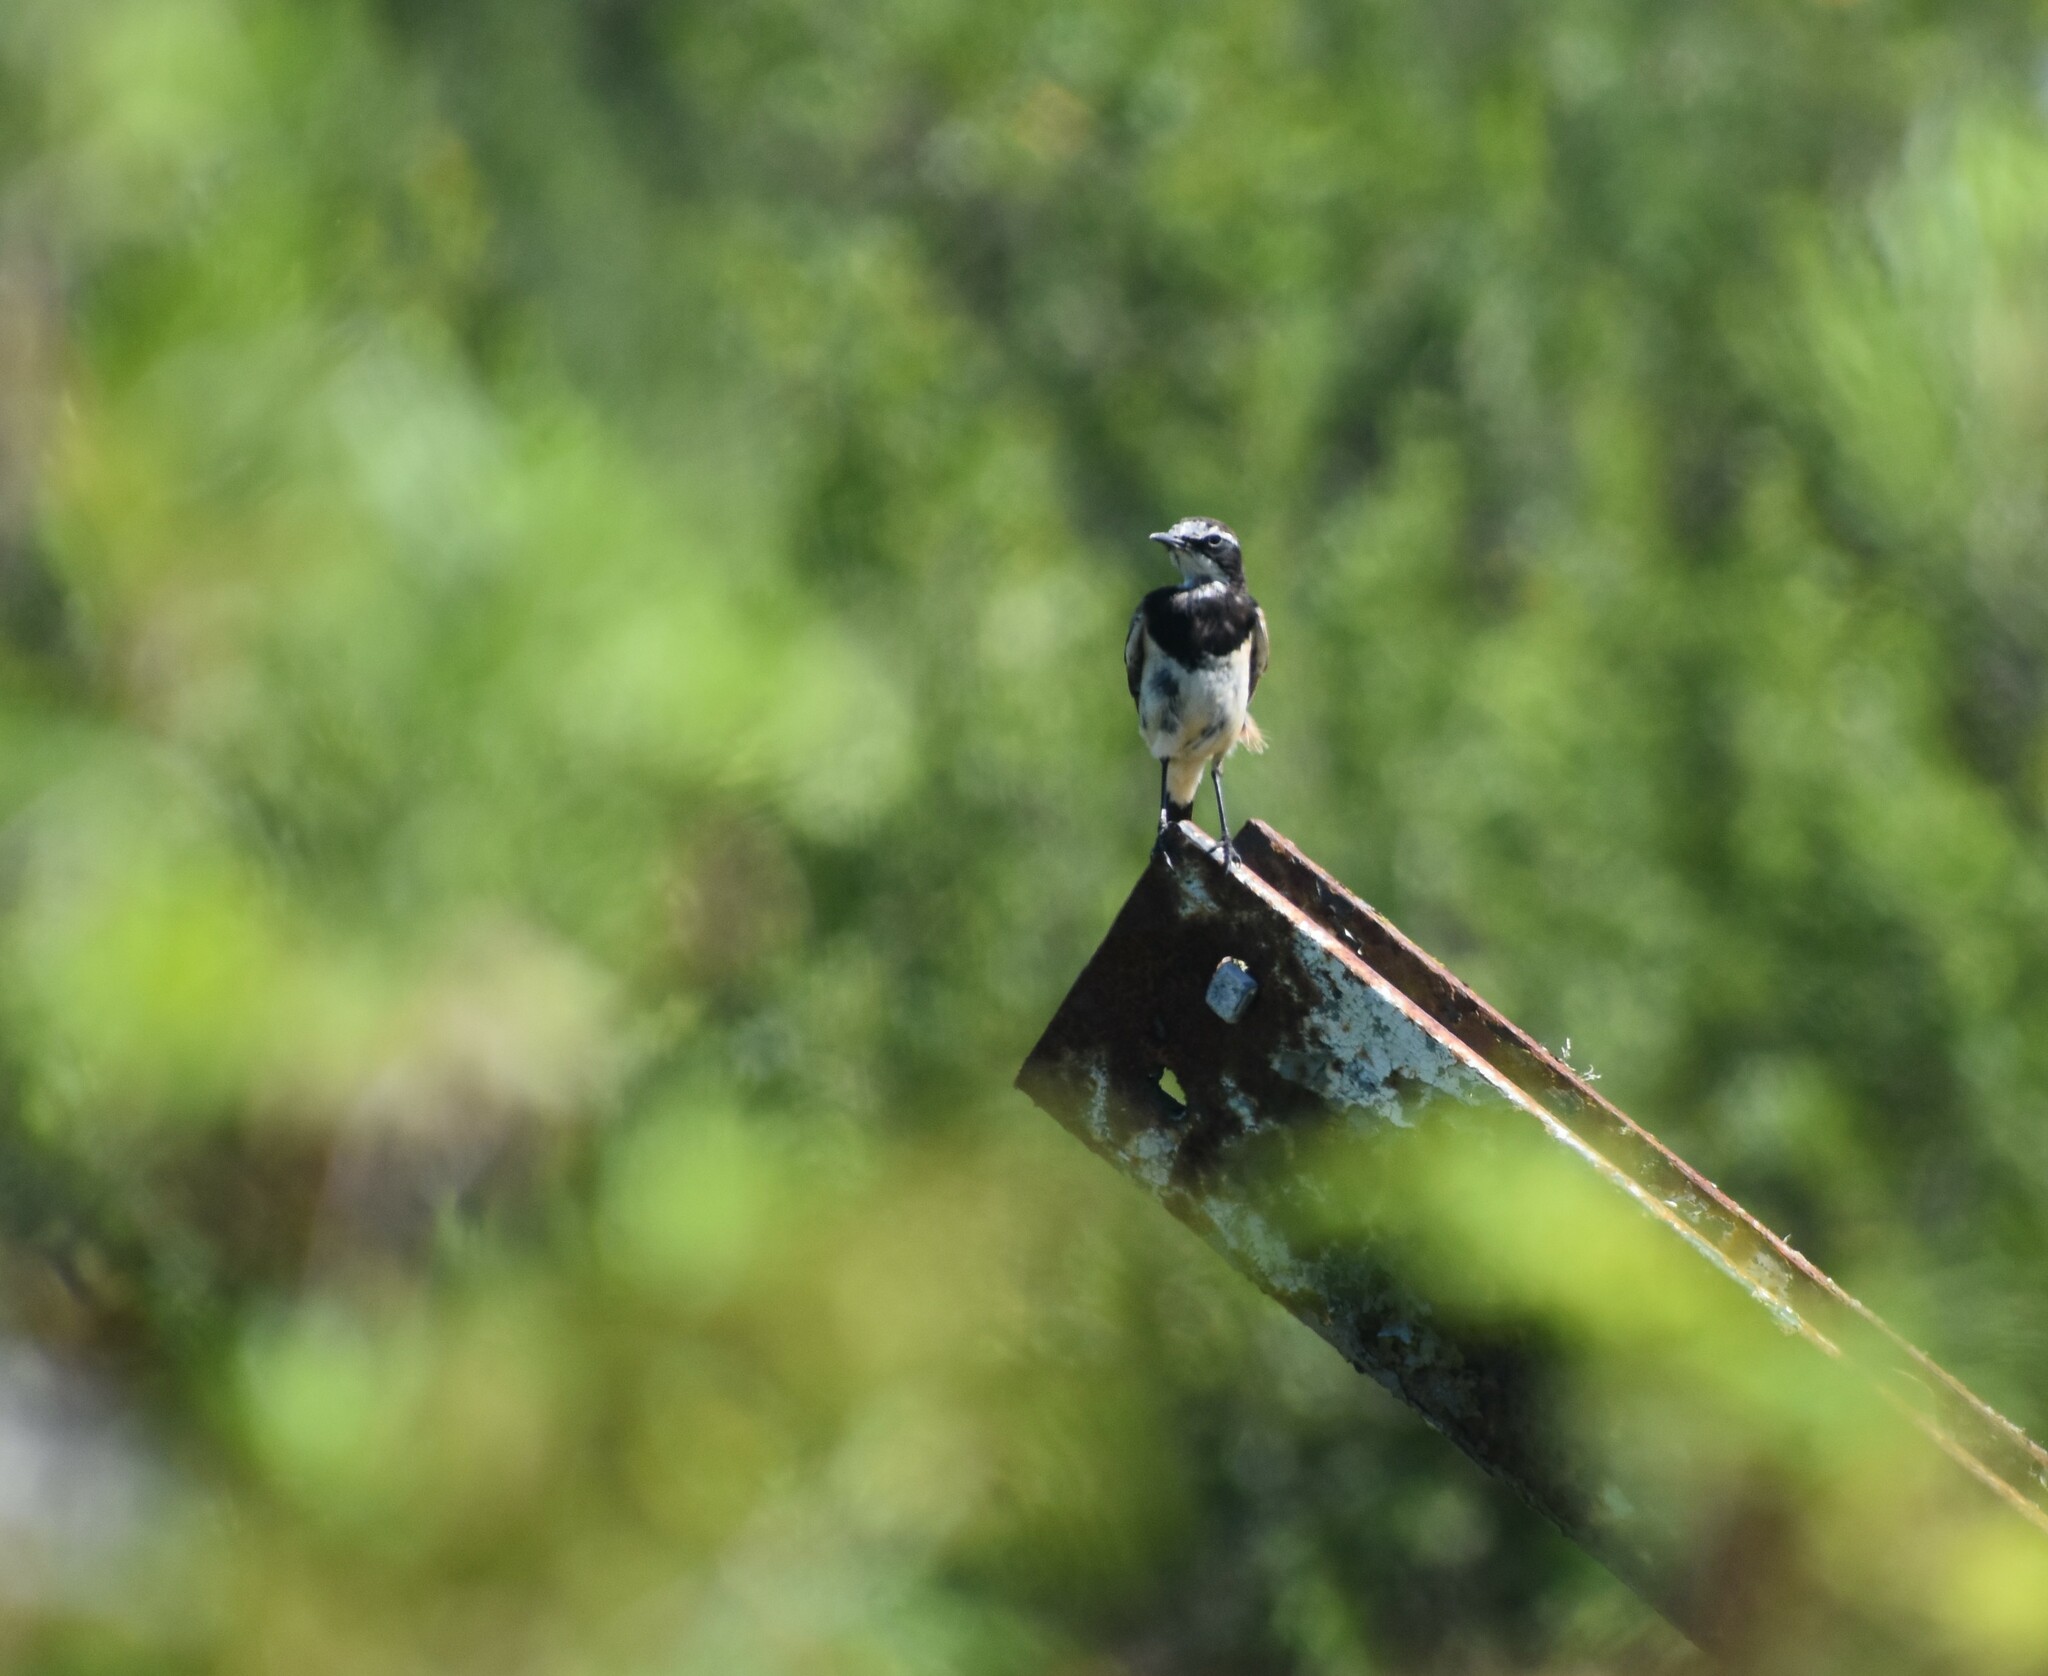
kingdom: Animalia
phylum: Chordata
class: Aves
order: Passeriformes
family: Muscicapidae
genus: Oenanthe
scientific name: Oenanthe pileata
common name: Capped wheatear
